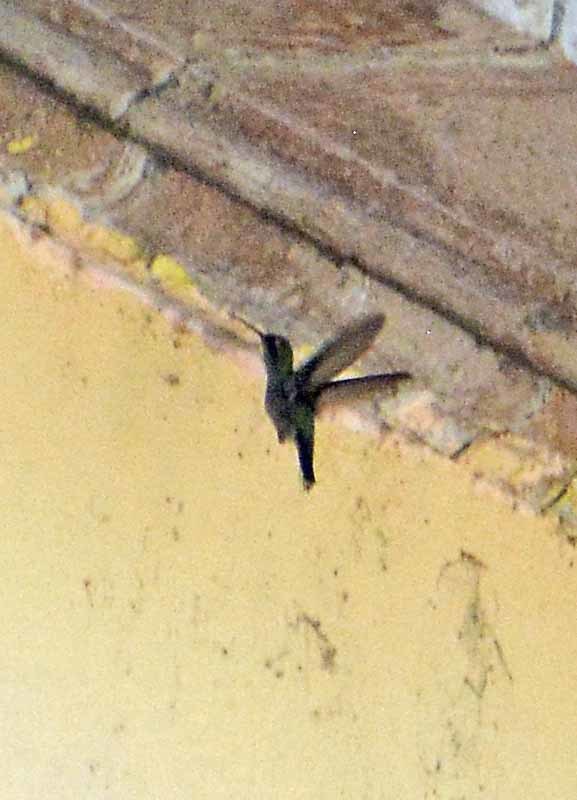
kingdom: Animalia
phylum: Chordata
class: Aves
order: Apodiformes
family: Trochilidae
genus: Cynanthus
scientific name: Cynanthus latirostris
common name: Broad-billed hummingbird
